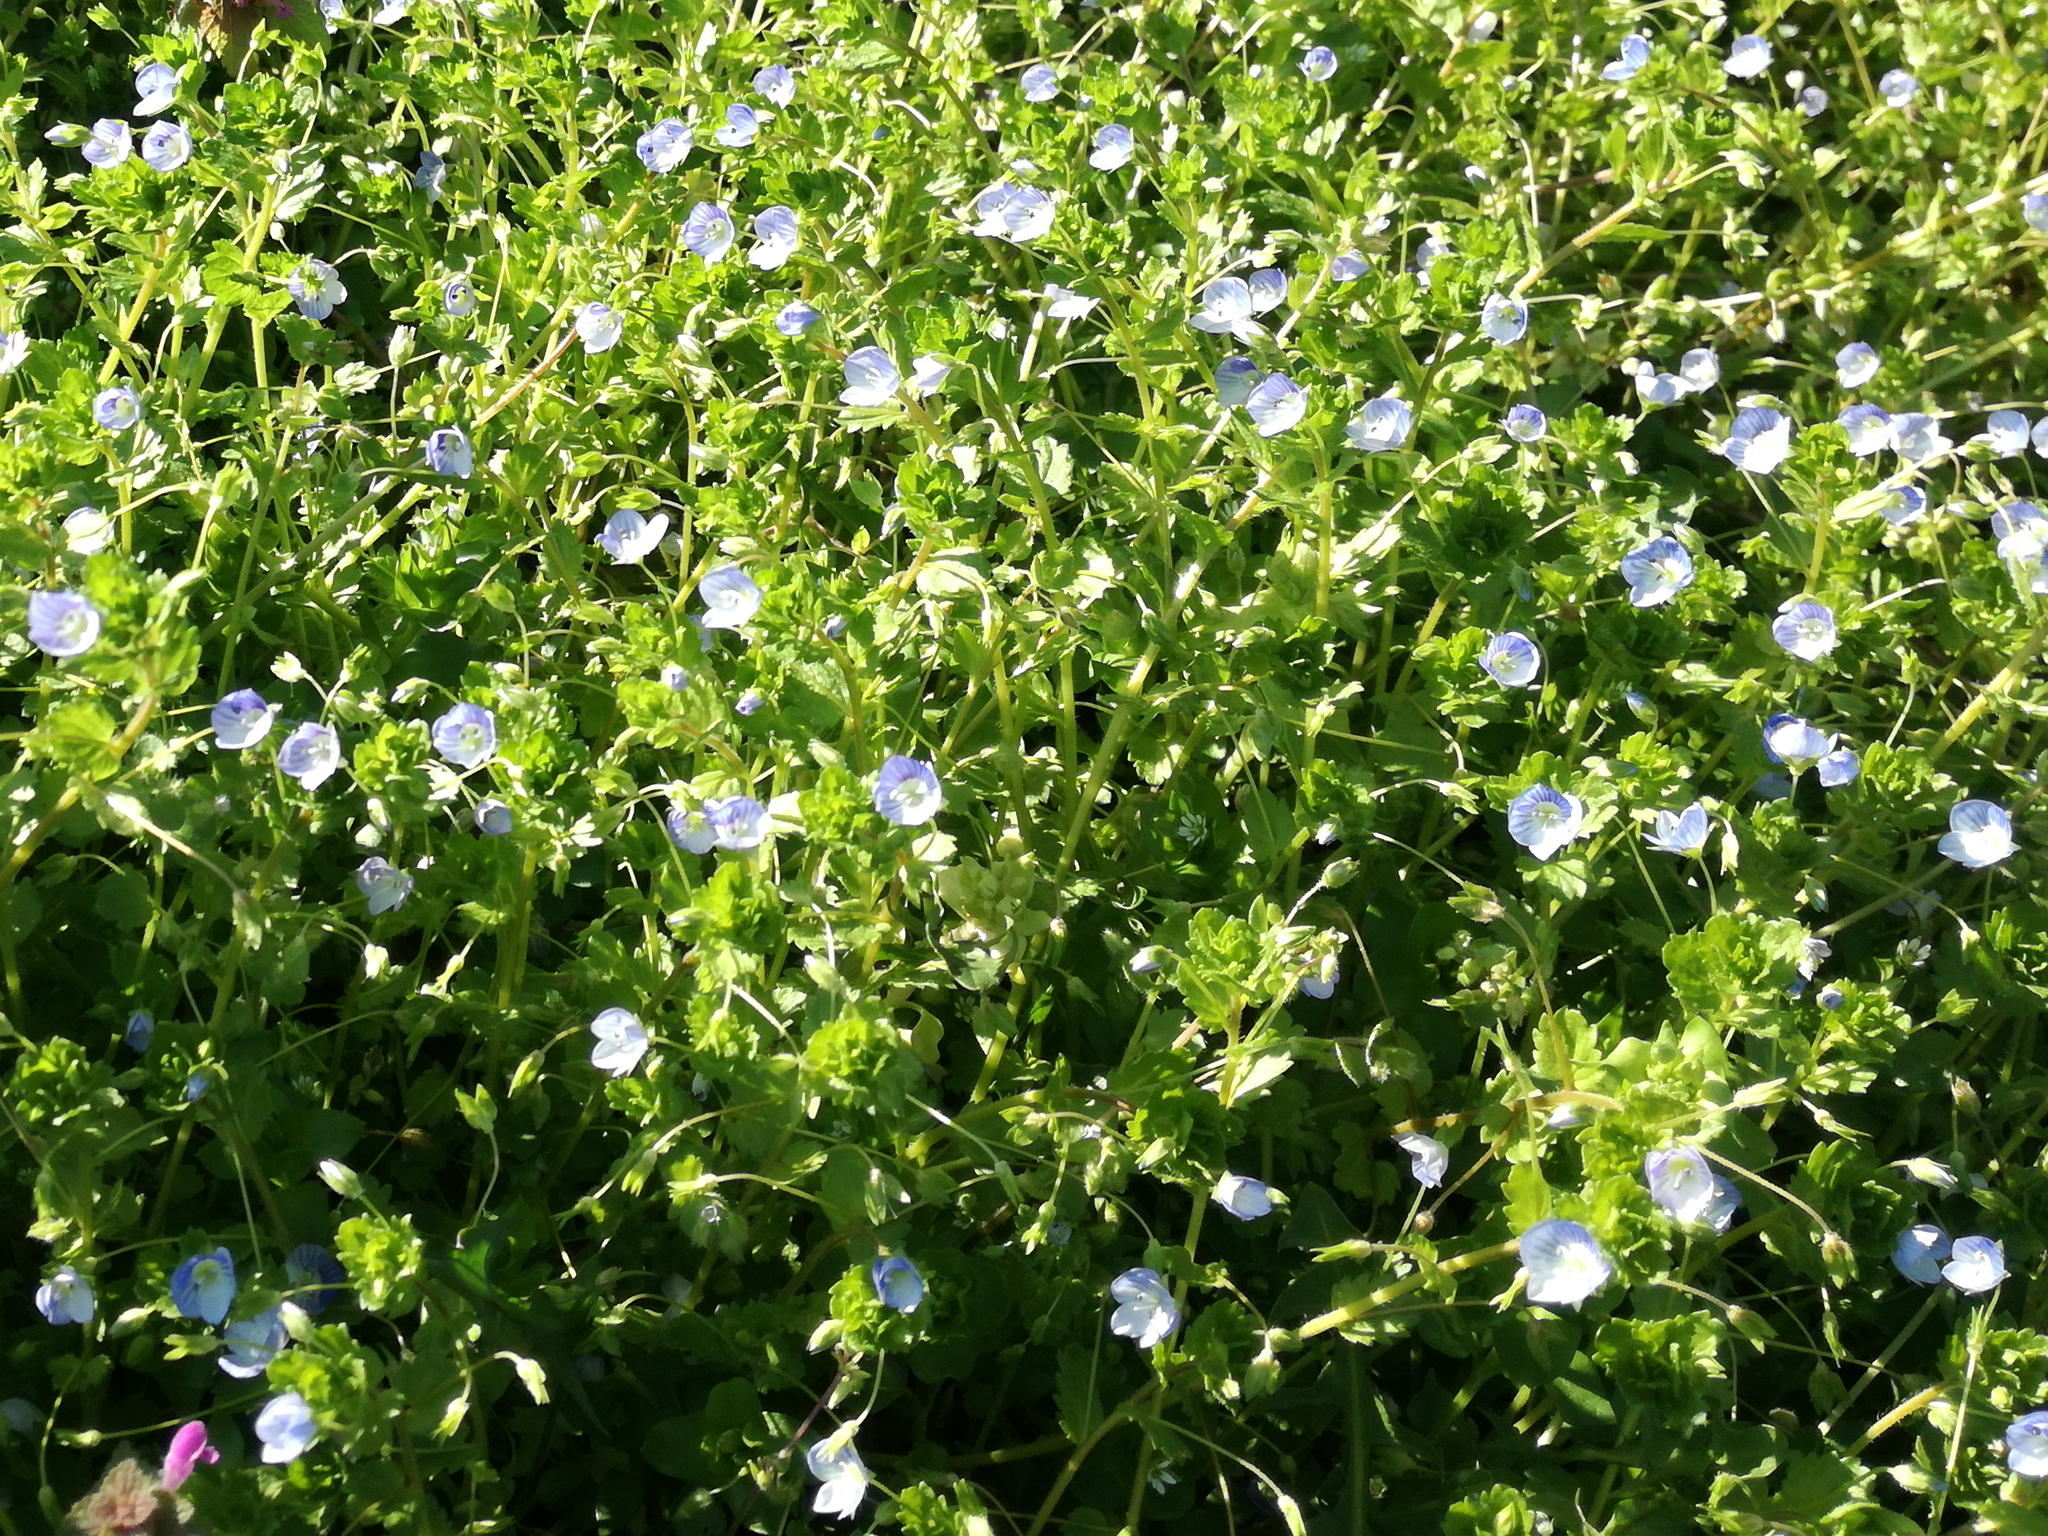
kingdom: Plantae
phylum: Tracheophyta
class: Magnoliopsida
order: Lamiales
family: Plantaginaceae
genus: Veronica
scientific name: Veronica persica
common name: Common field-speedwell
